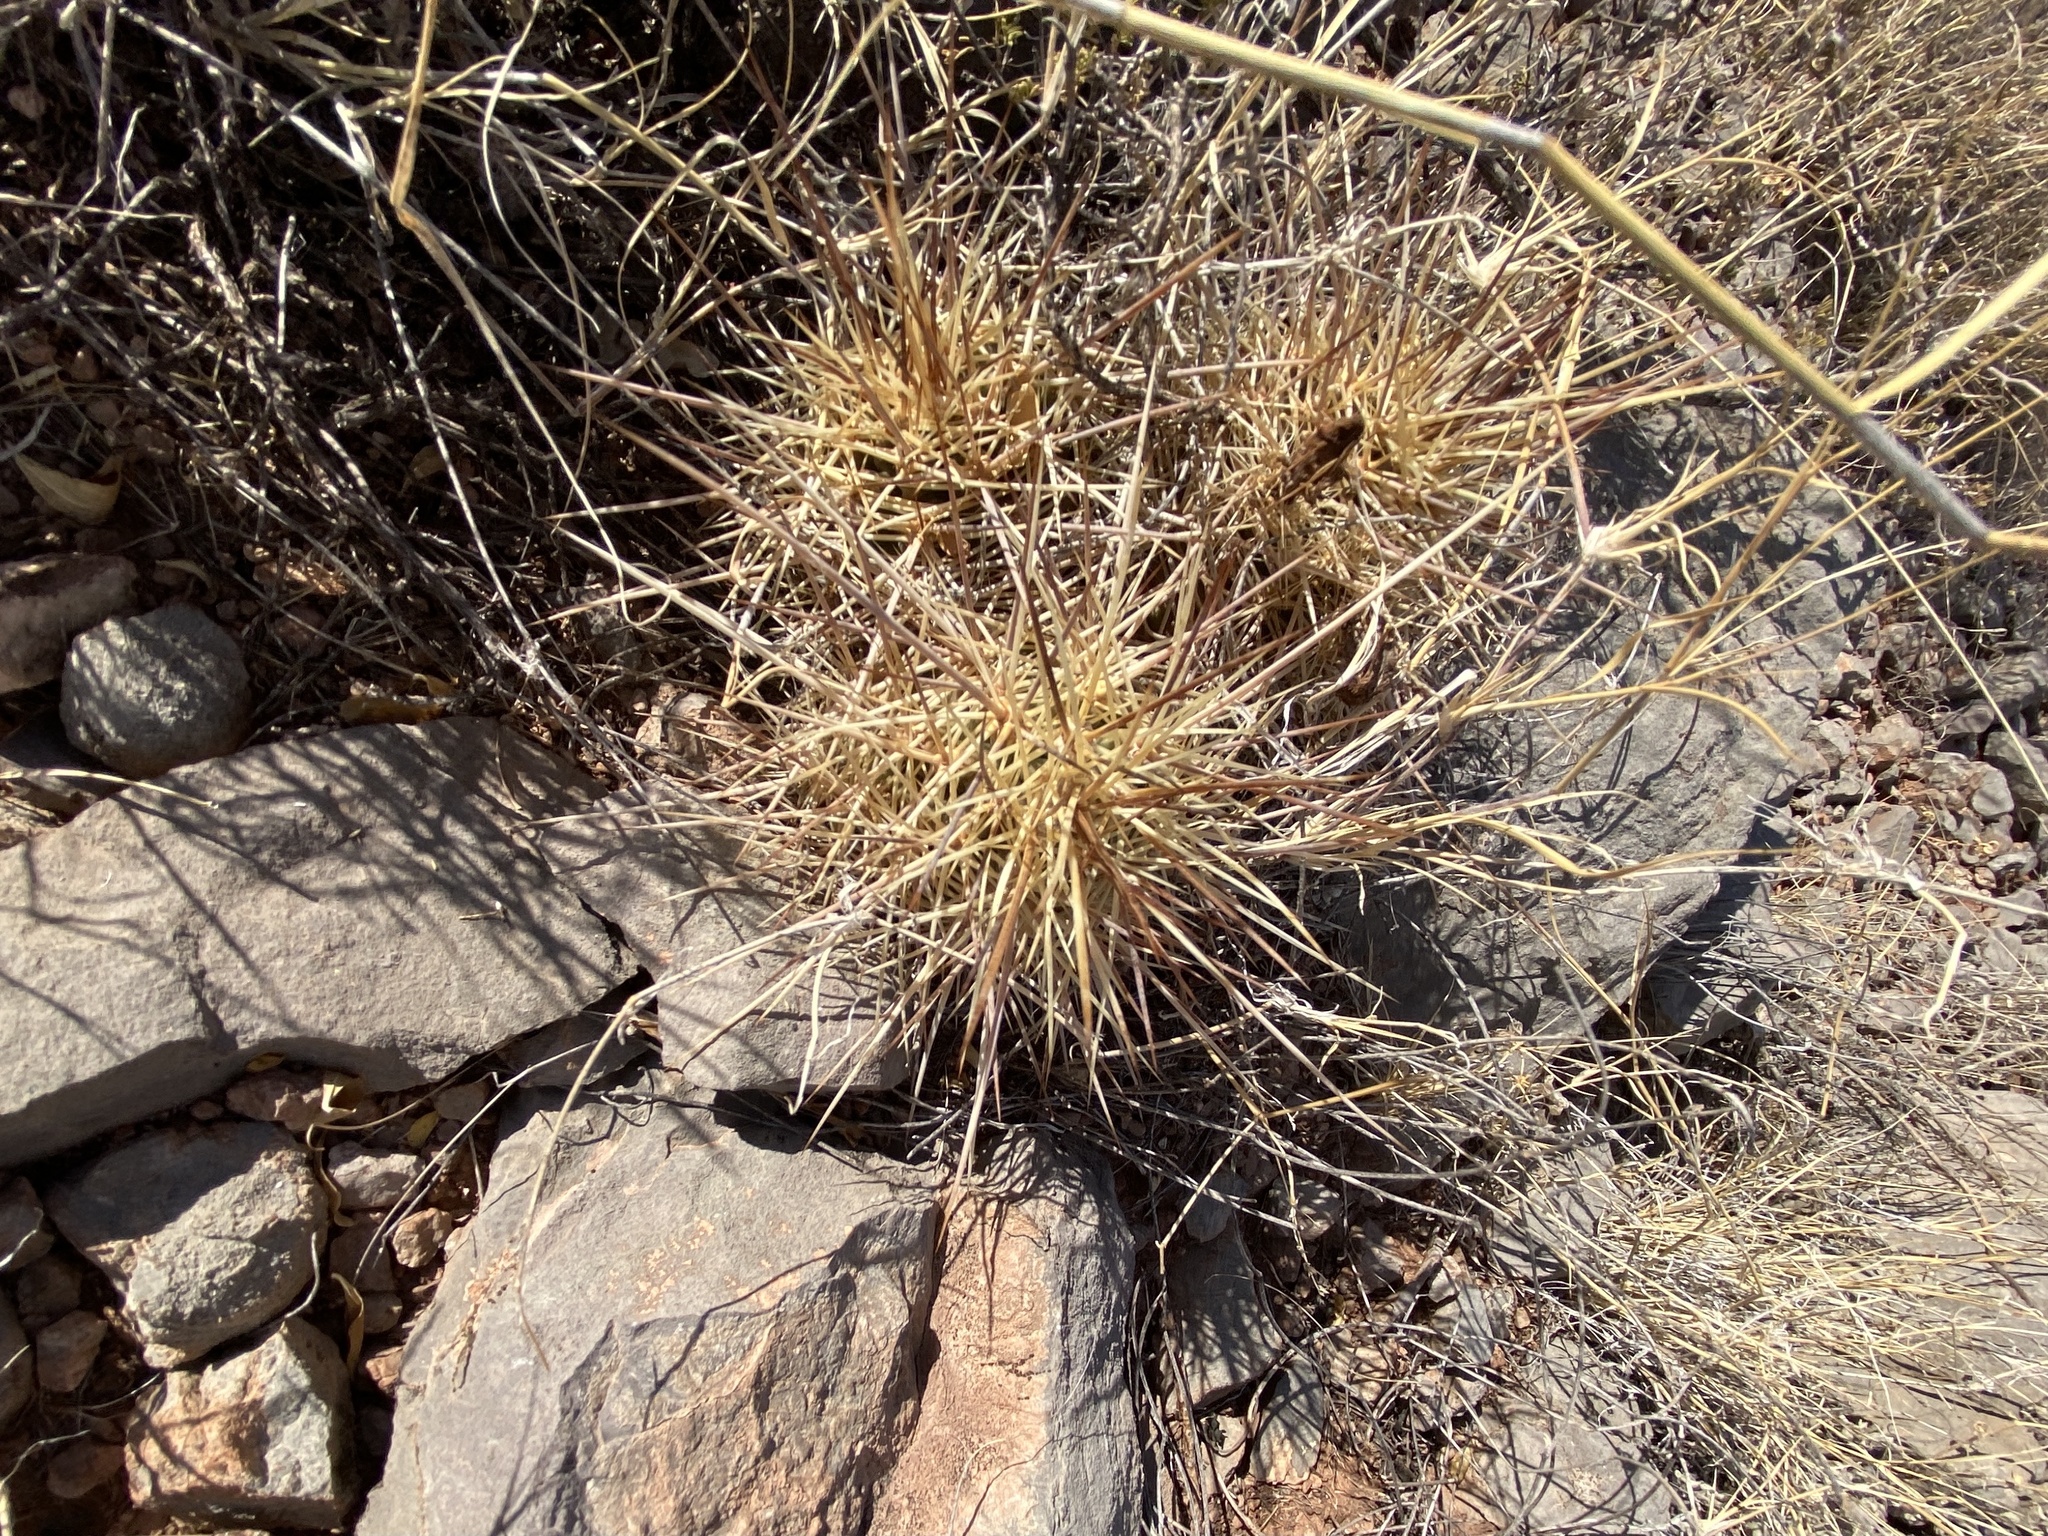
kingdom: Plantae
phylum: Tracheophyta
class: Magnoliopsida
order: Caryophyllales
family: Cactaceae
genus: Echinocereus
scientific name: Echinocereus coccineus
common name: Scarlet hedgehog cactus
